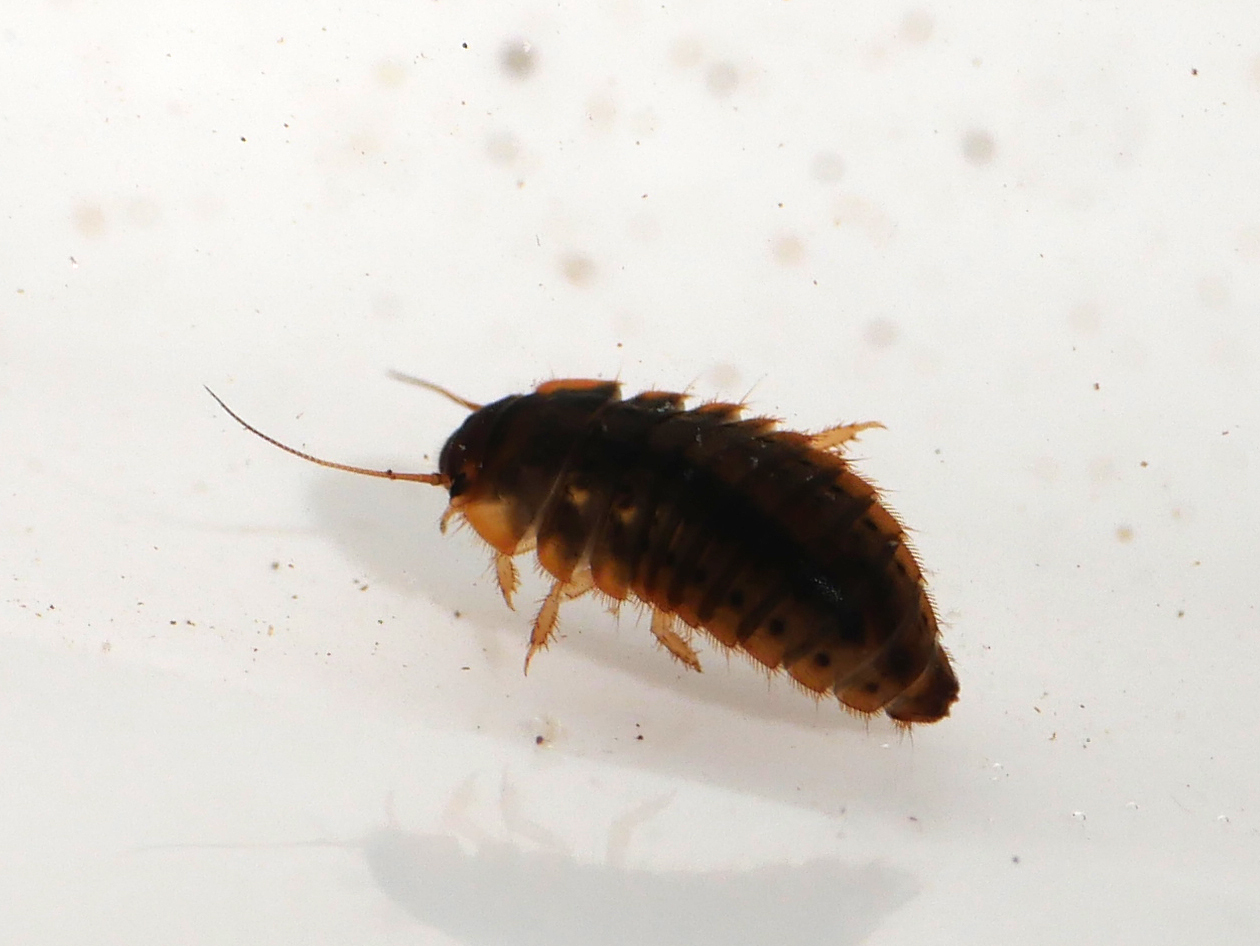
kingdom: Animalia
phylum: Arthropoda
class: Insecta
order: Coleoptera
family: Scirtidae
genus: Odeles
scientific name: Odeles marginata
